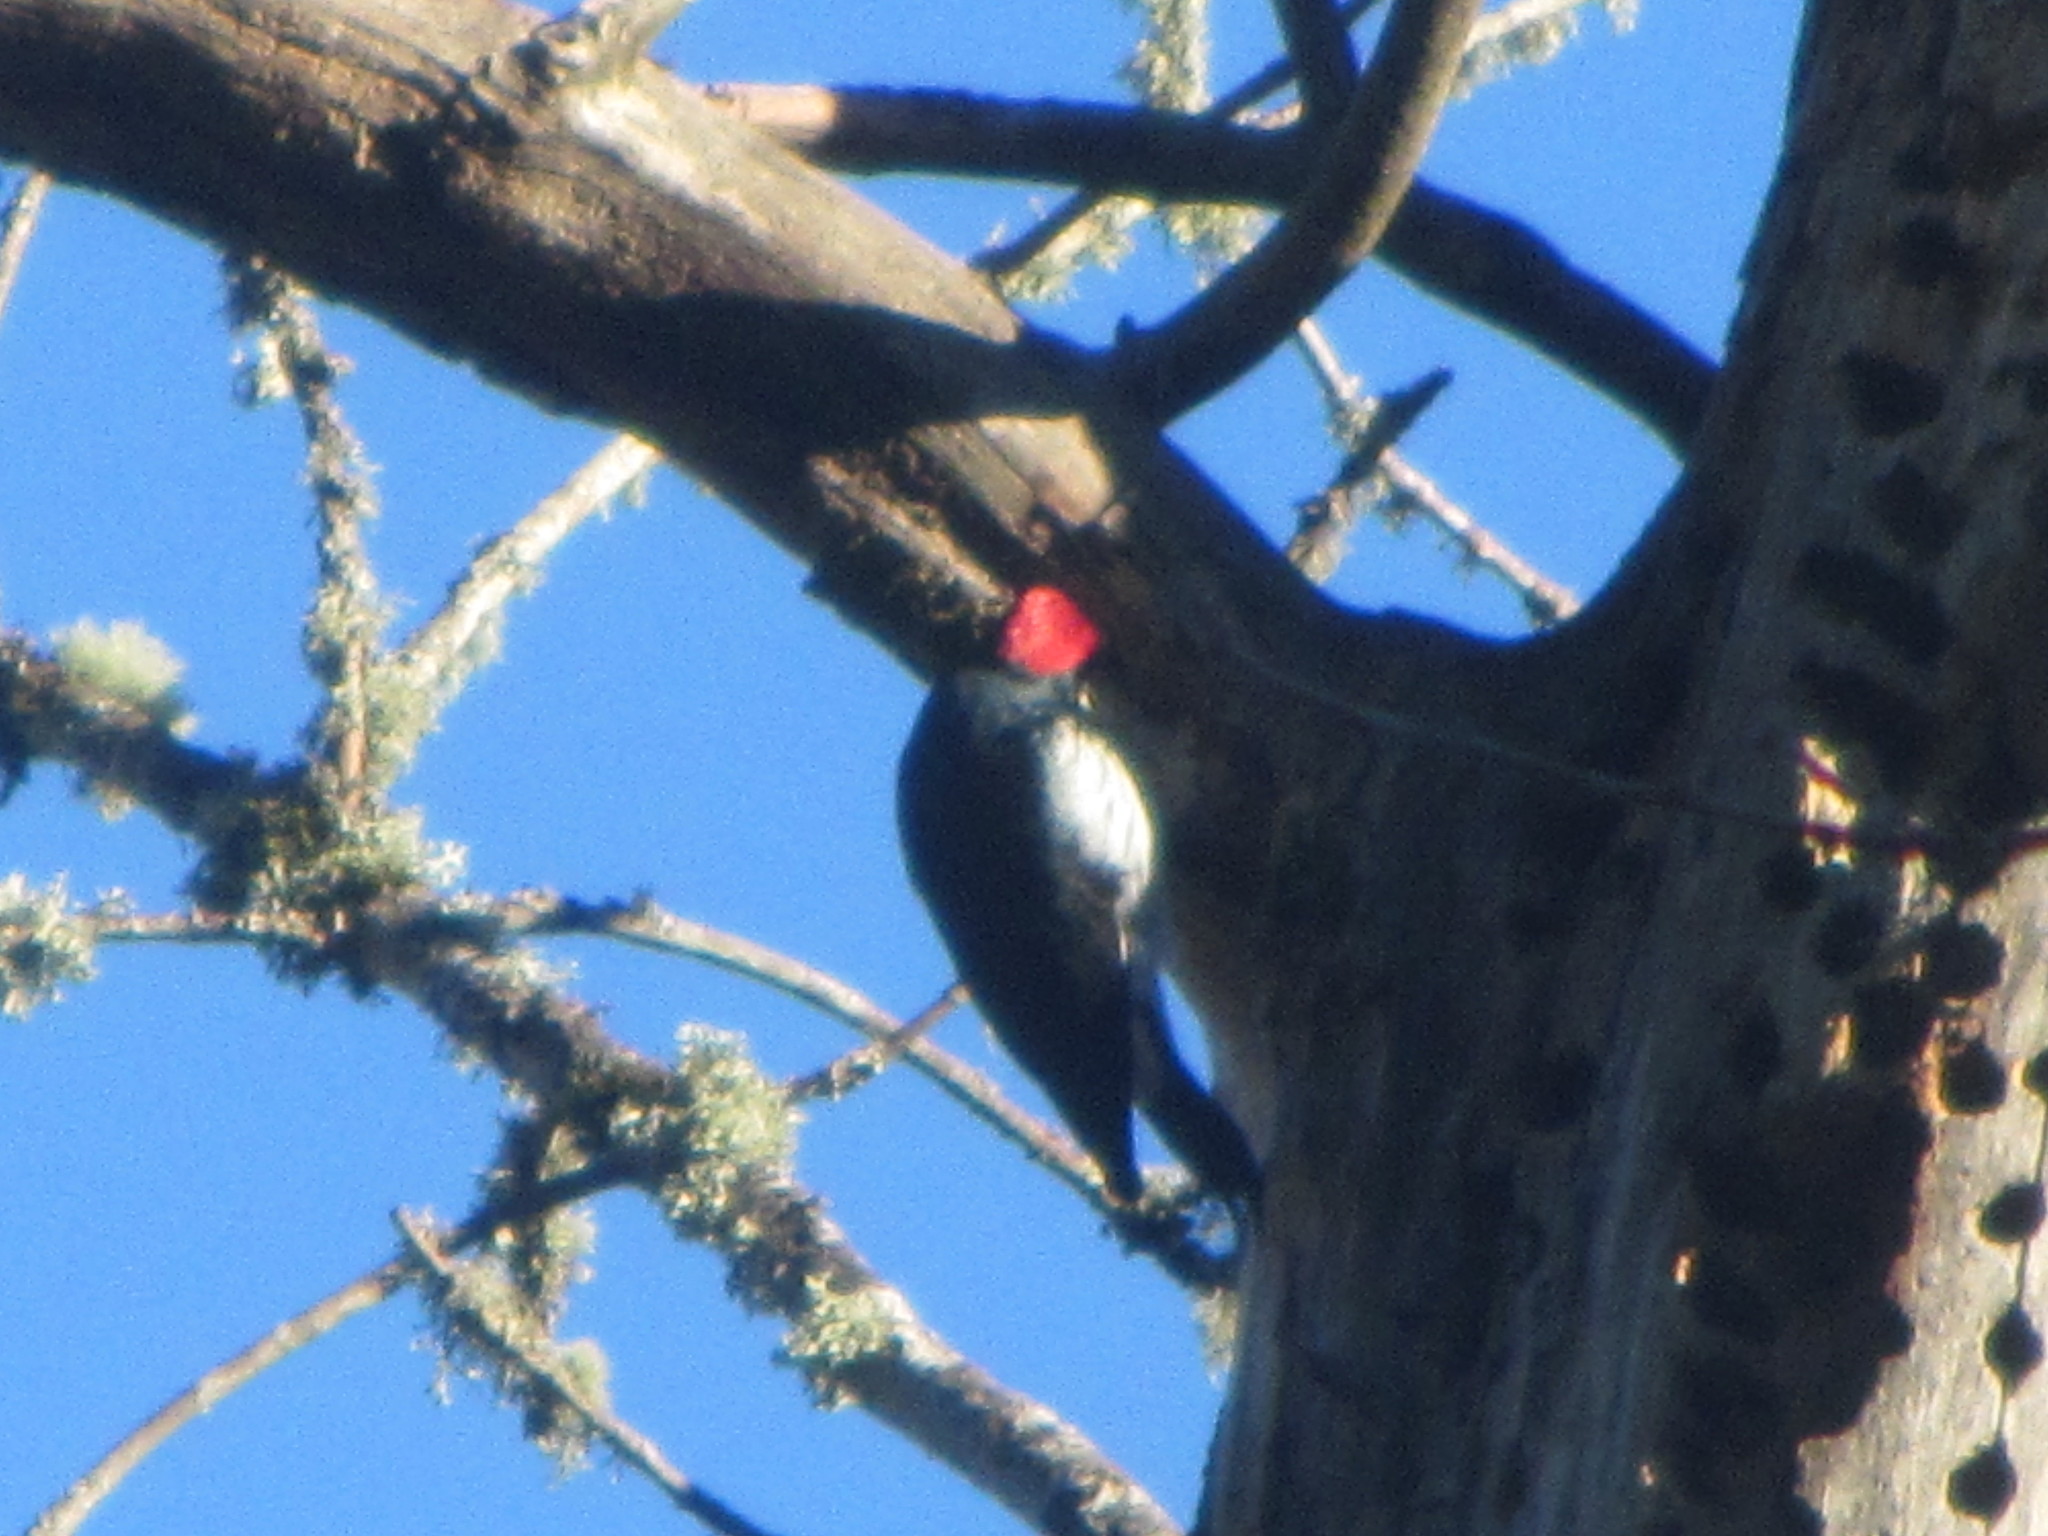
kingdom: Animalia
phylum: Chordata
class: Aves
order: Piciformes
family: Picidae
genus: Melanerpes
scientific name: Melanerpes formicivorus
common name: Acorn woodpecker
